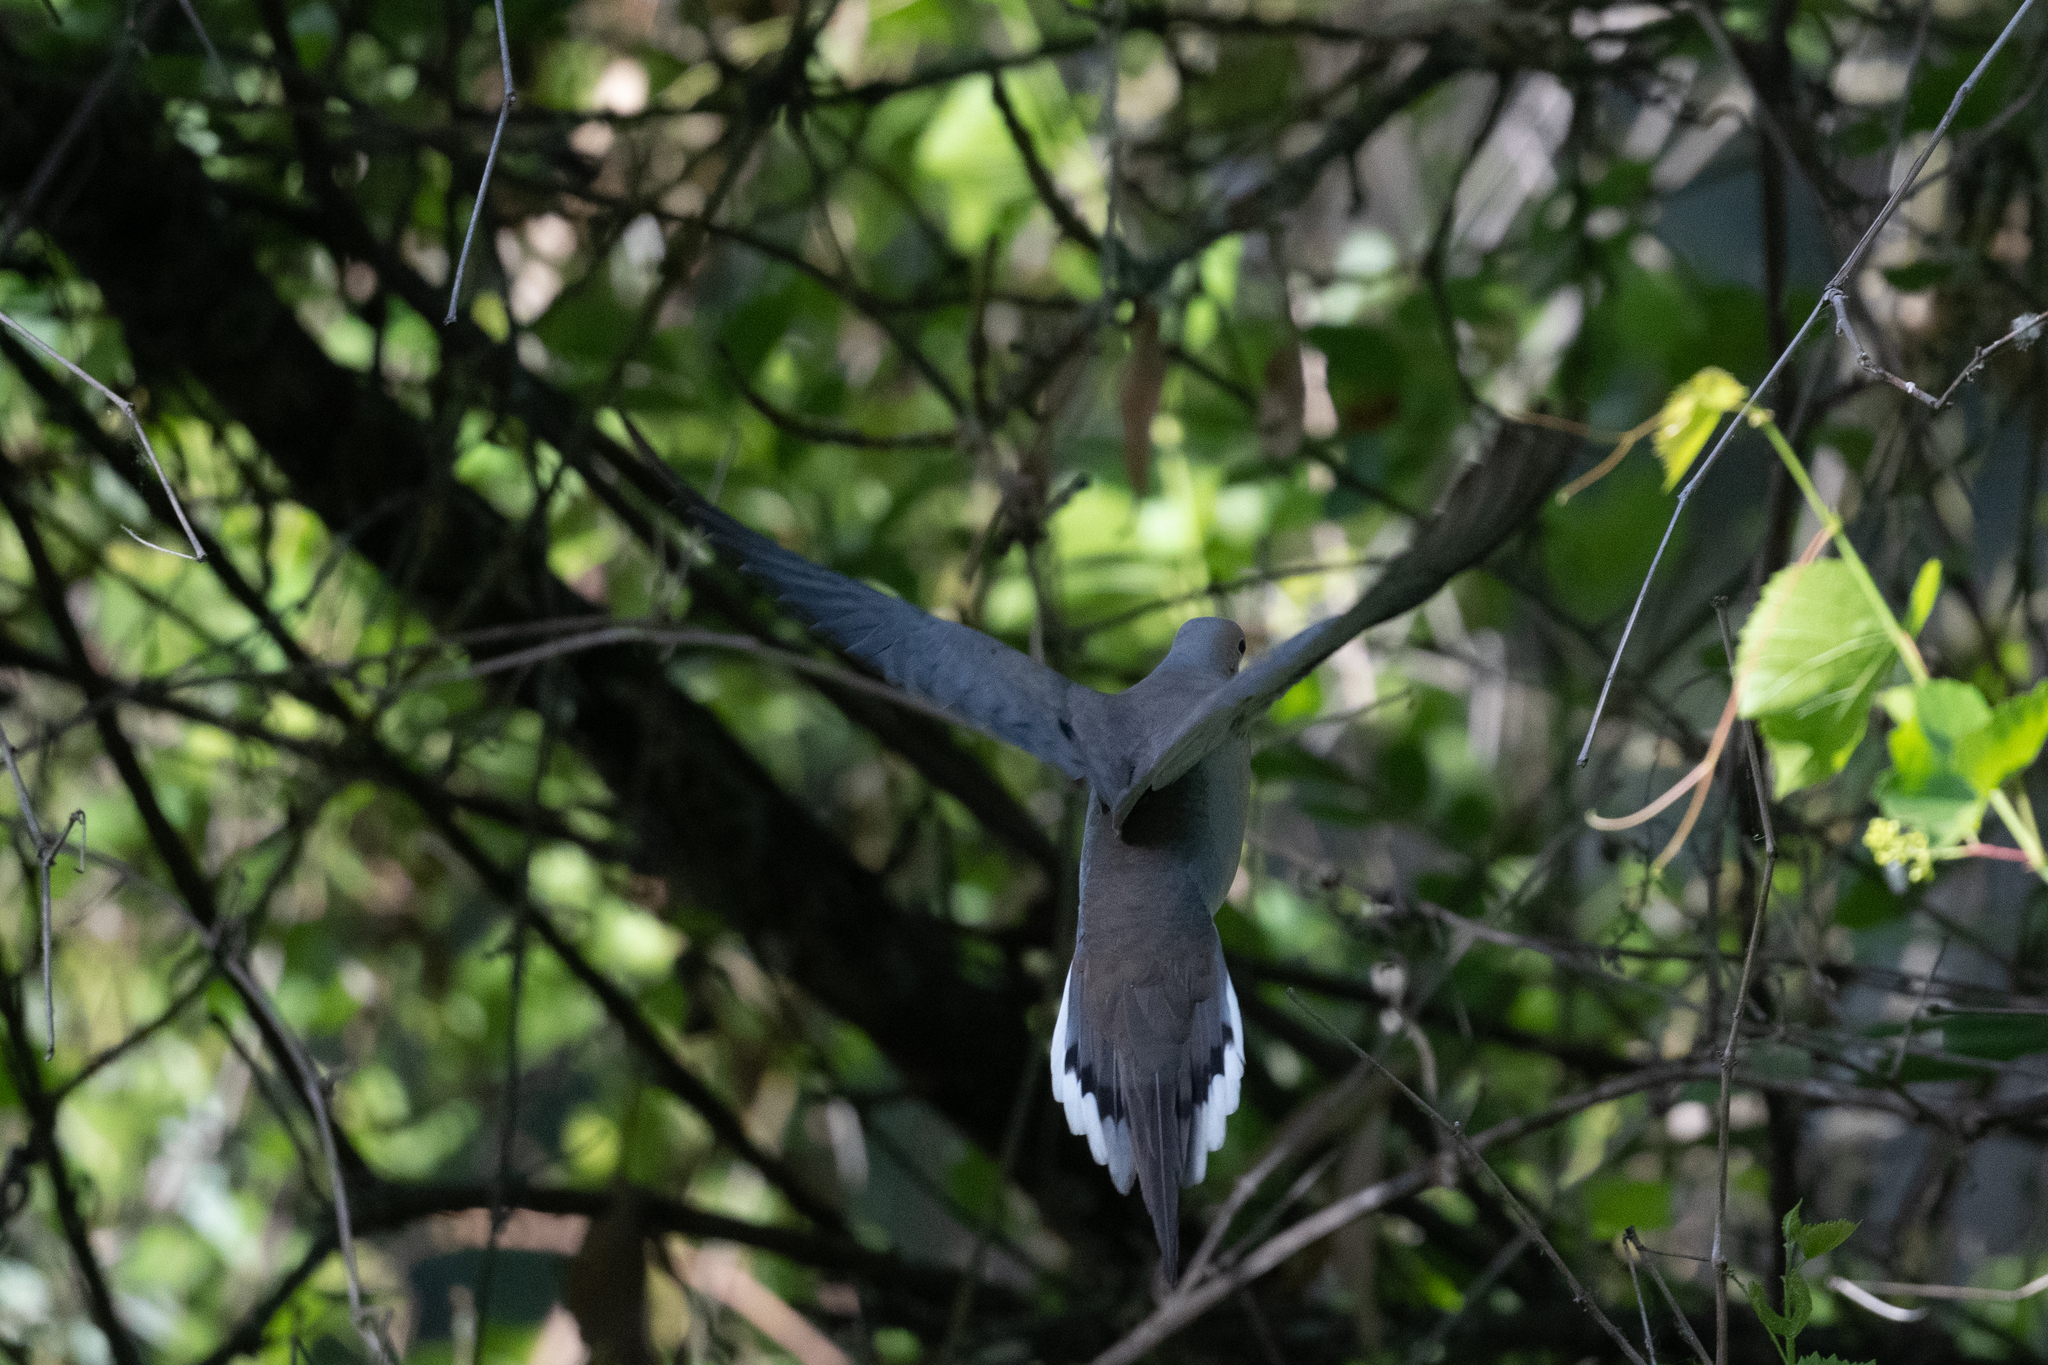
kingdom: Animalia
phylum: Chordata
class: Aves
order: Columbiformes
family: Columbidae
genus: Zenaida
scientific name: Zenaida macroura
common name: Mourning dove
